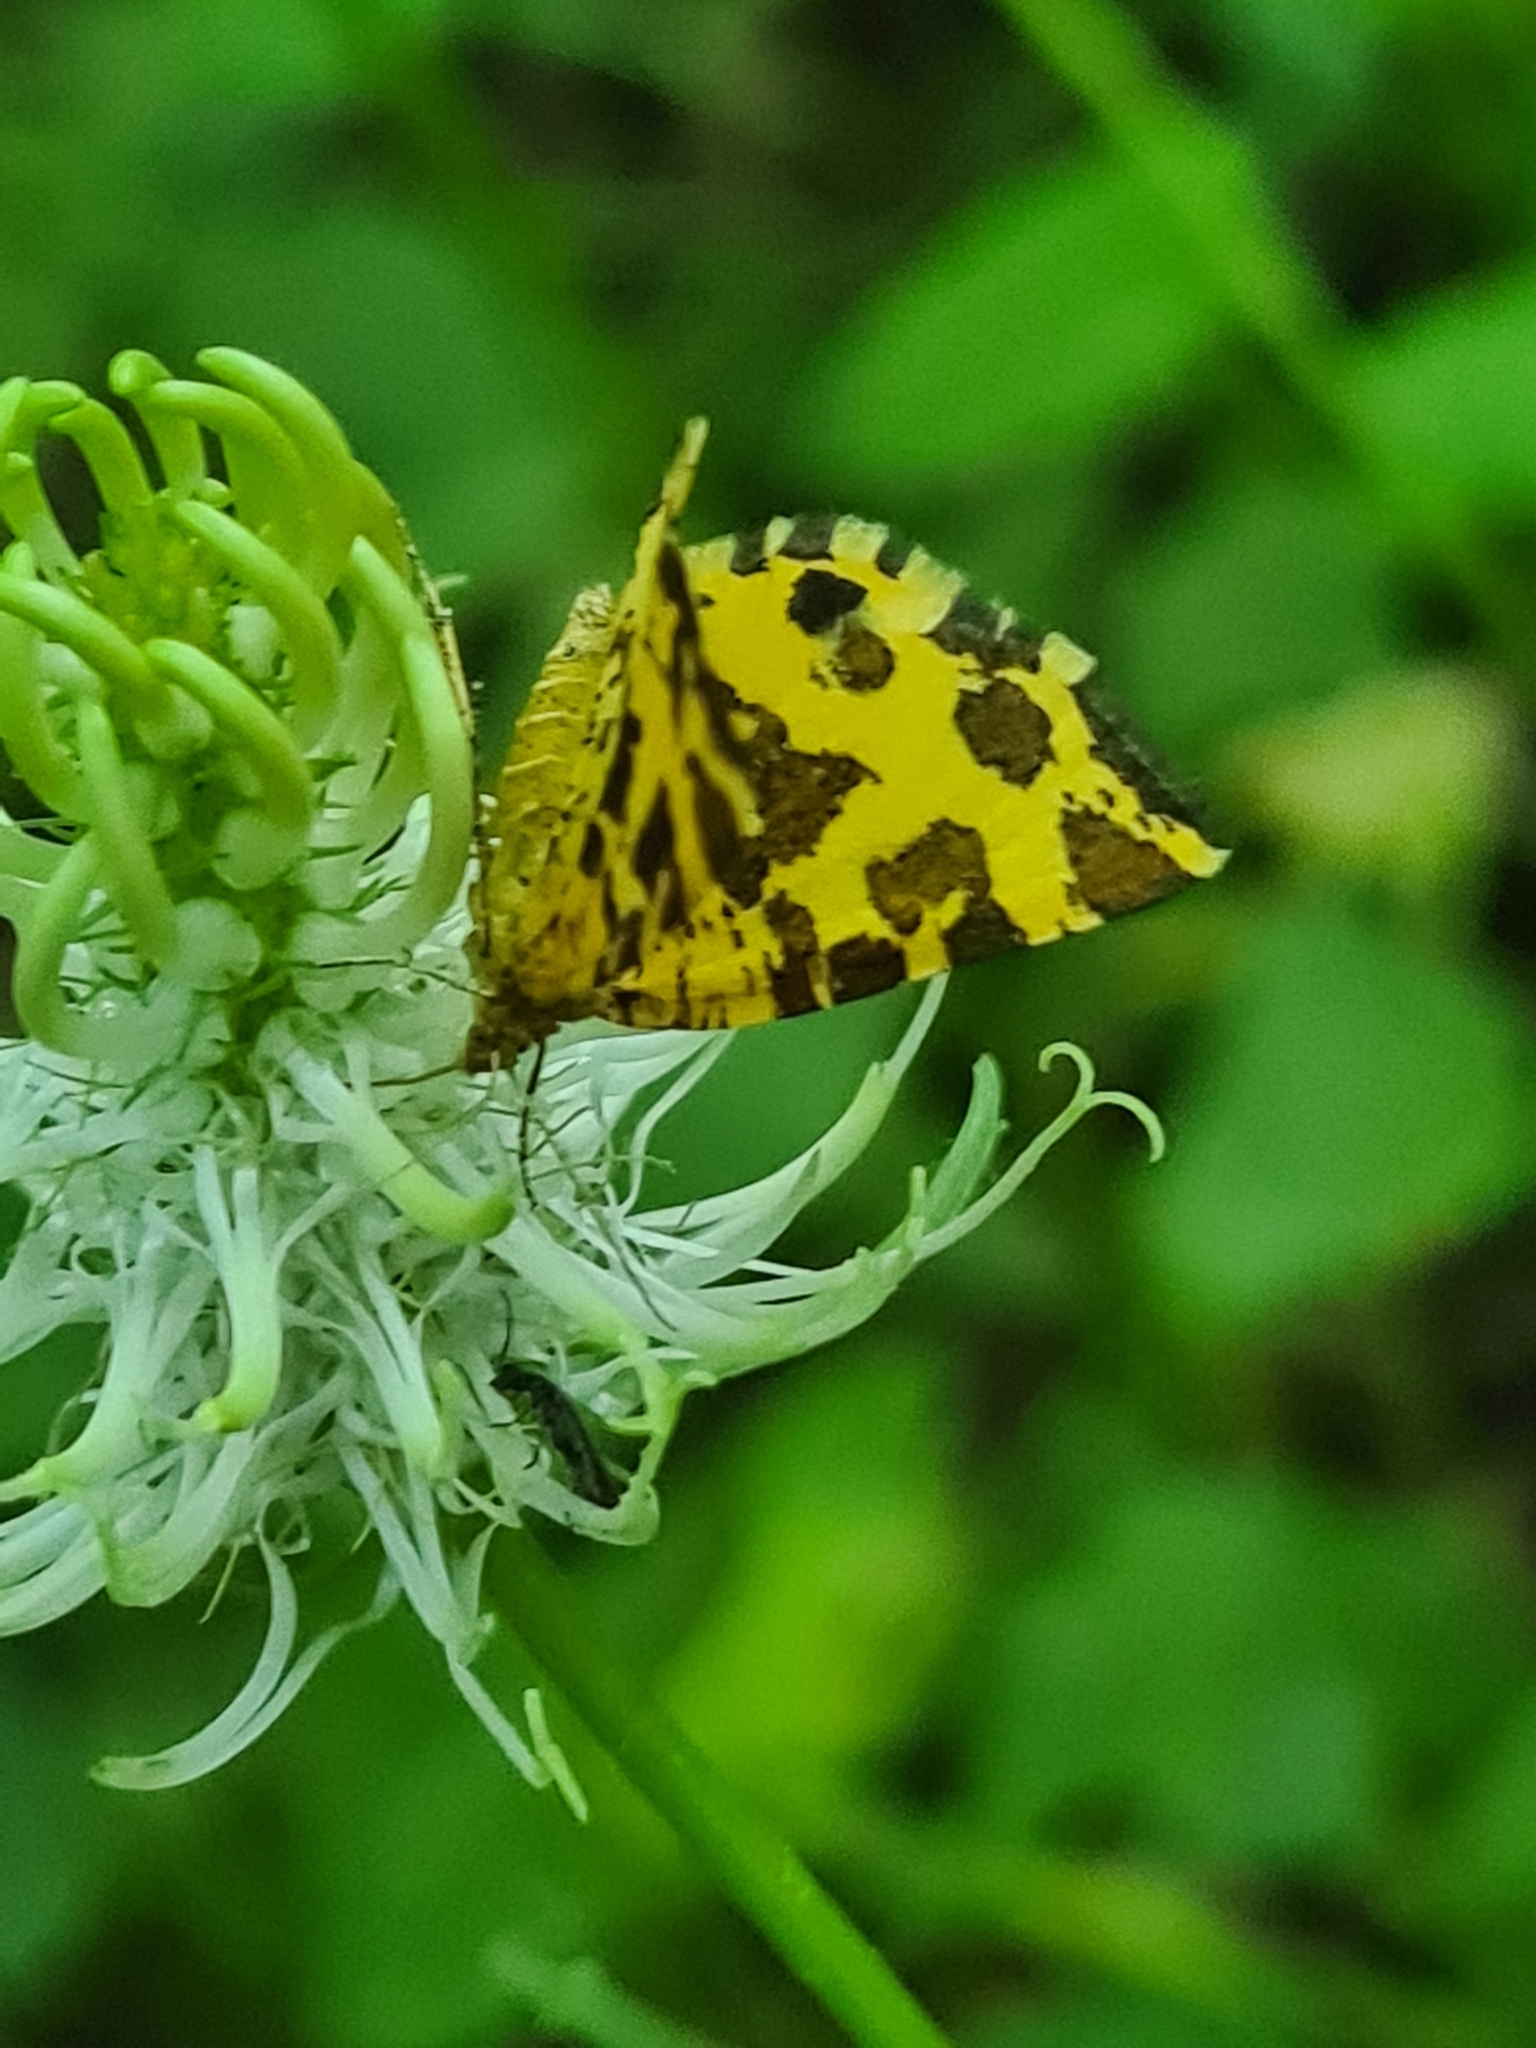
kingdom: Animalia
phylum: Arthropoda
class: Insecta
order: Lepidoptera
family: Geometridae
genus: Pseudopanthera
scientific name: Pseudopanthera macularia
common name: Speckled yellow
